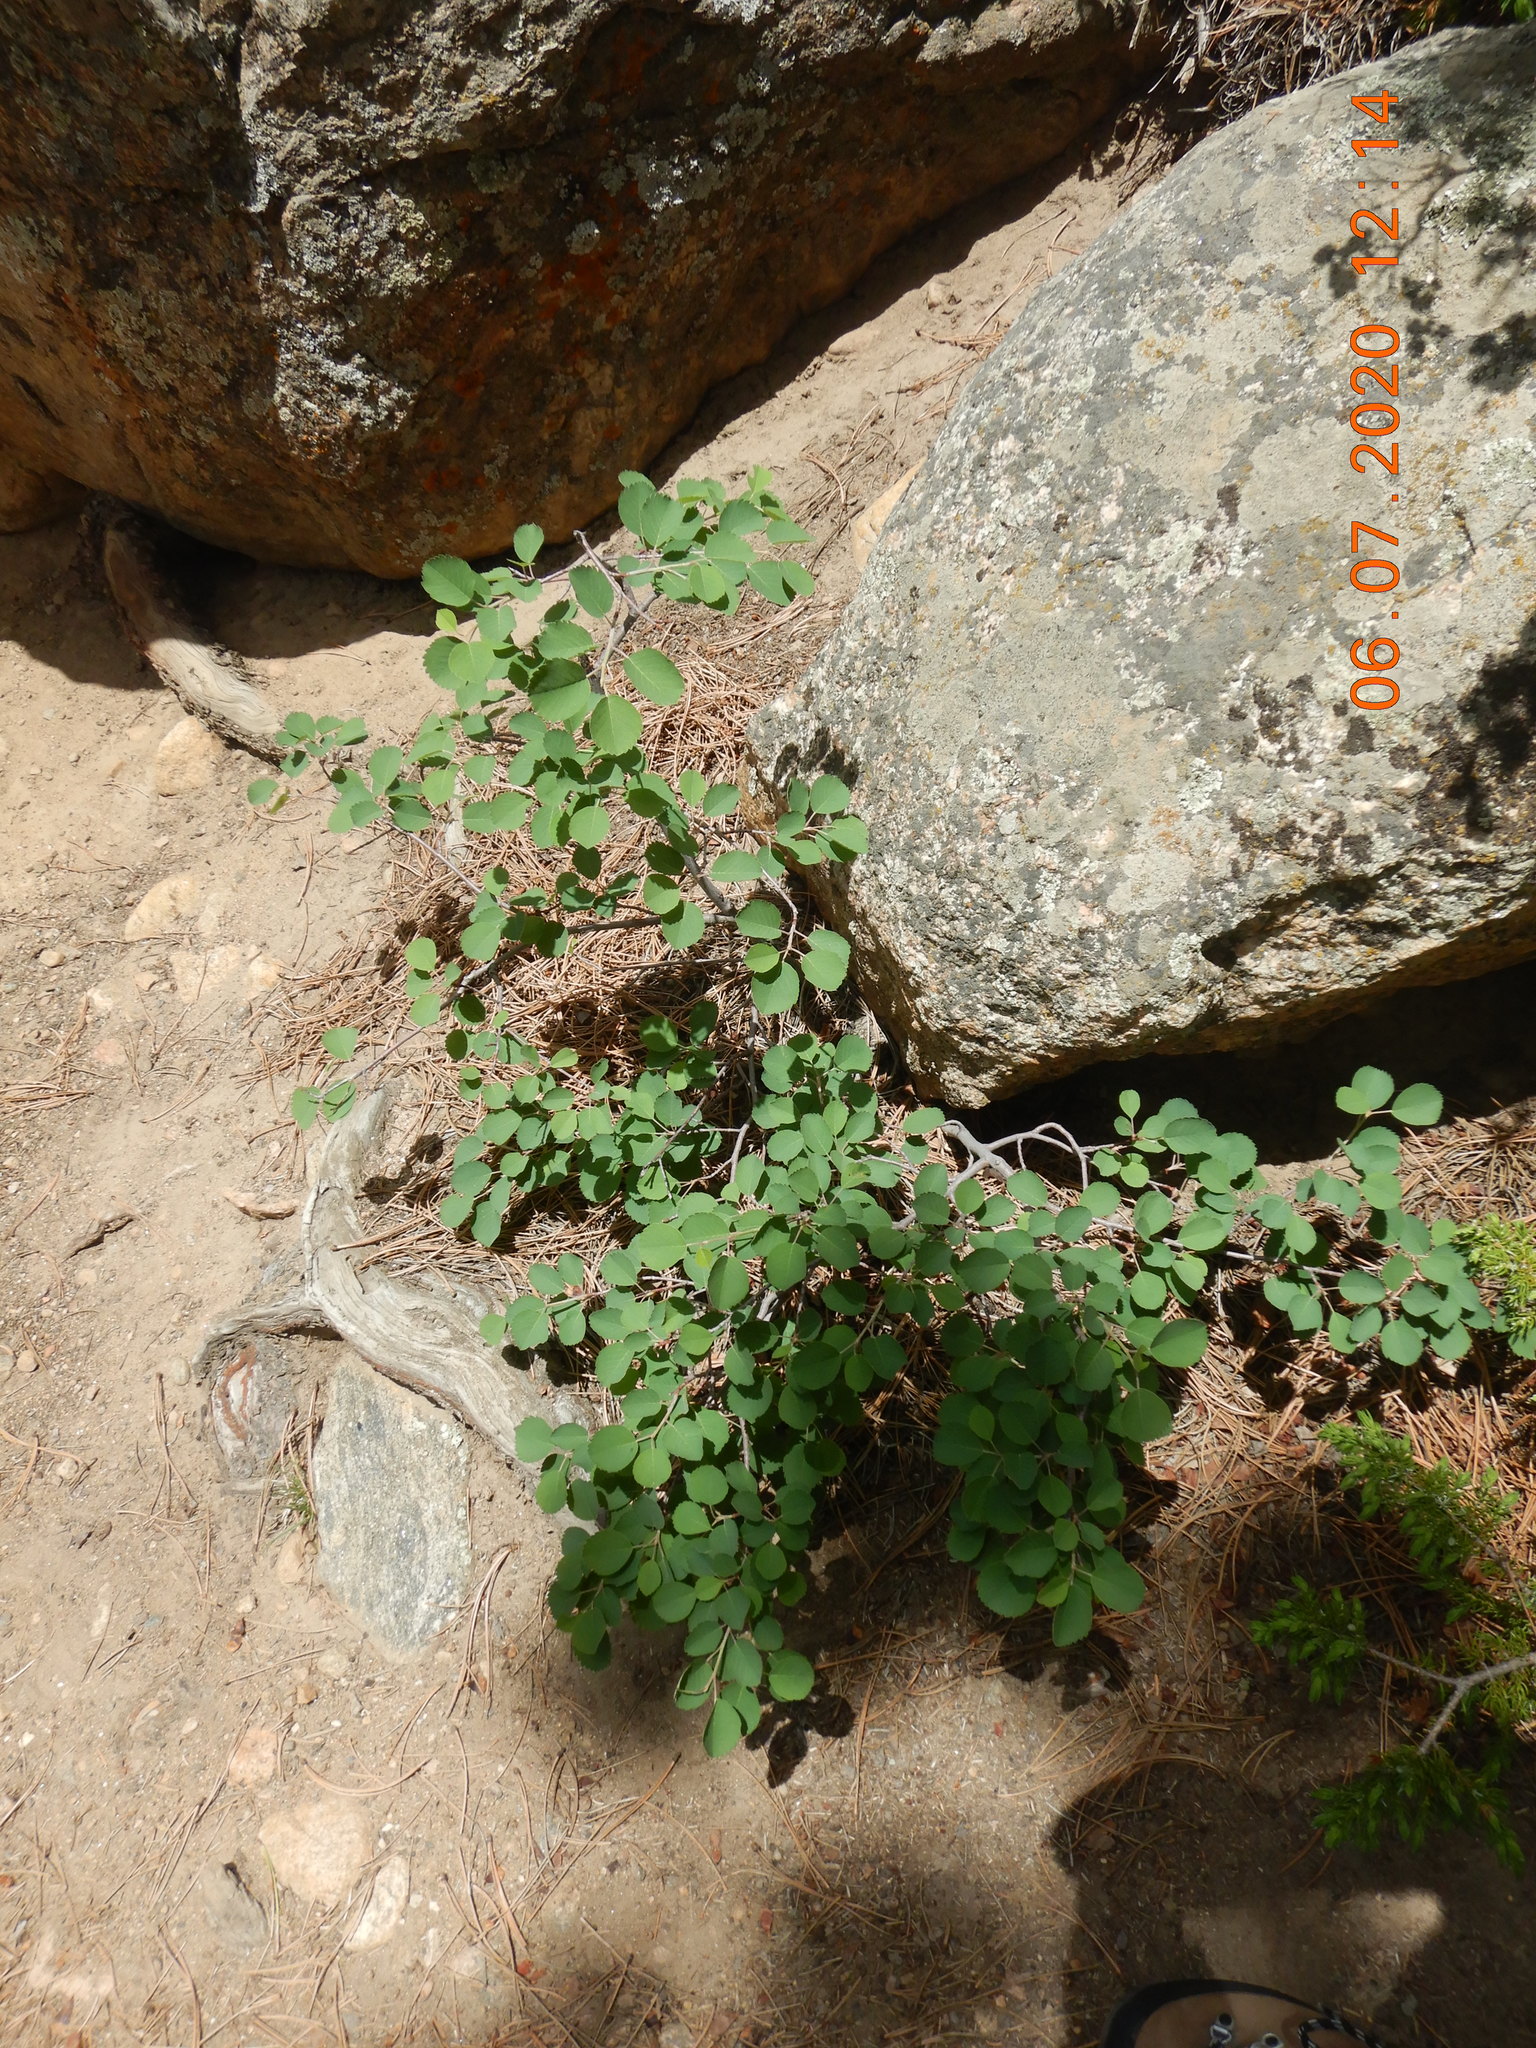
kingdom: Plantae
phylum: Tracheophyta
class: Magnoliopsida
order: Rosales
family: Rosaceae
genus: Amelanchier
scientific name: Amelanchier alnifolia
